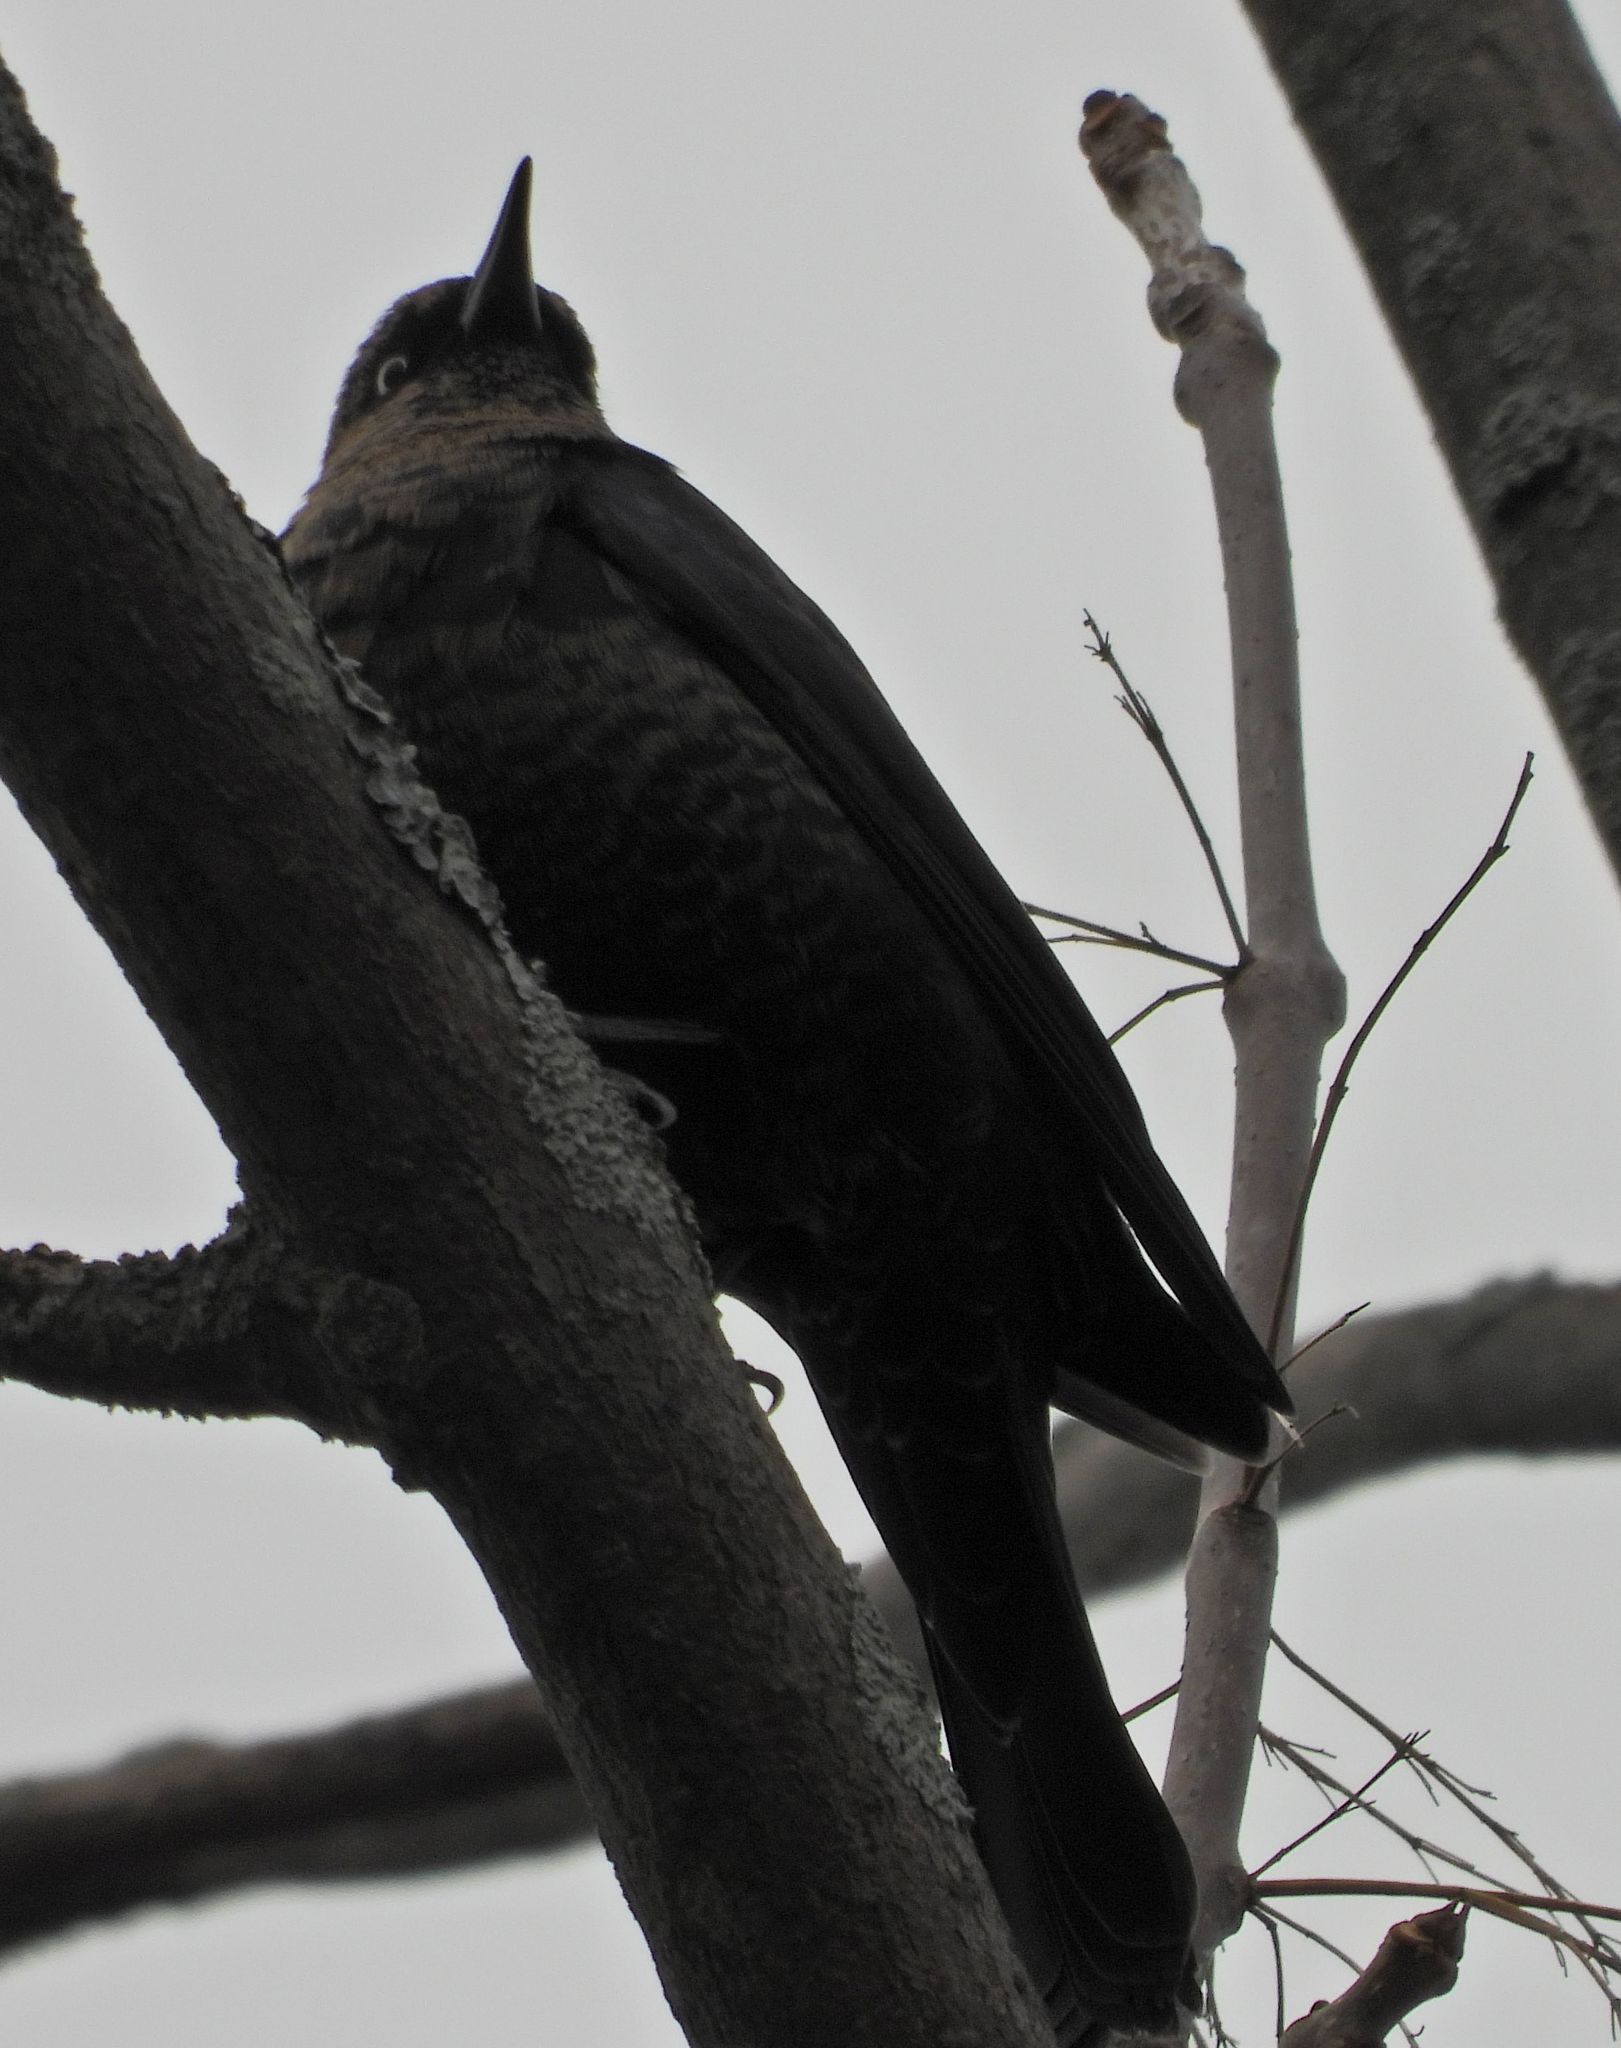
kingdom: Animalia
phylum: Chordata
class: Aves
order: Passeriformes
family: Icteridae
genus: Euphagus
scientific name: Euphagus carolinus
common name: Rusty blackbird
